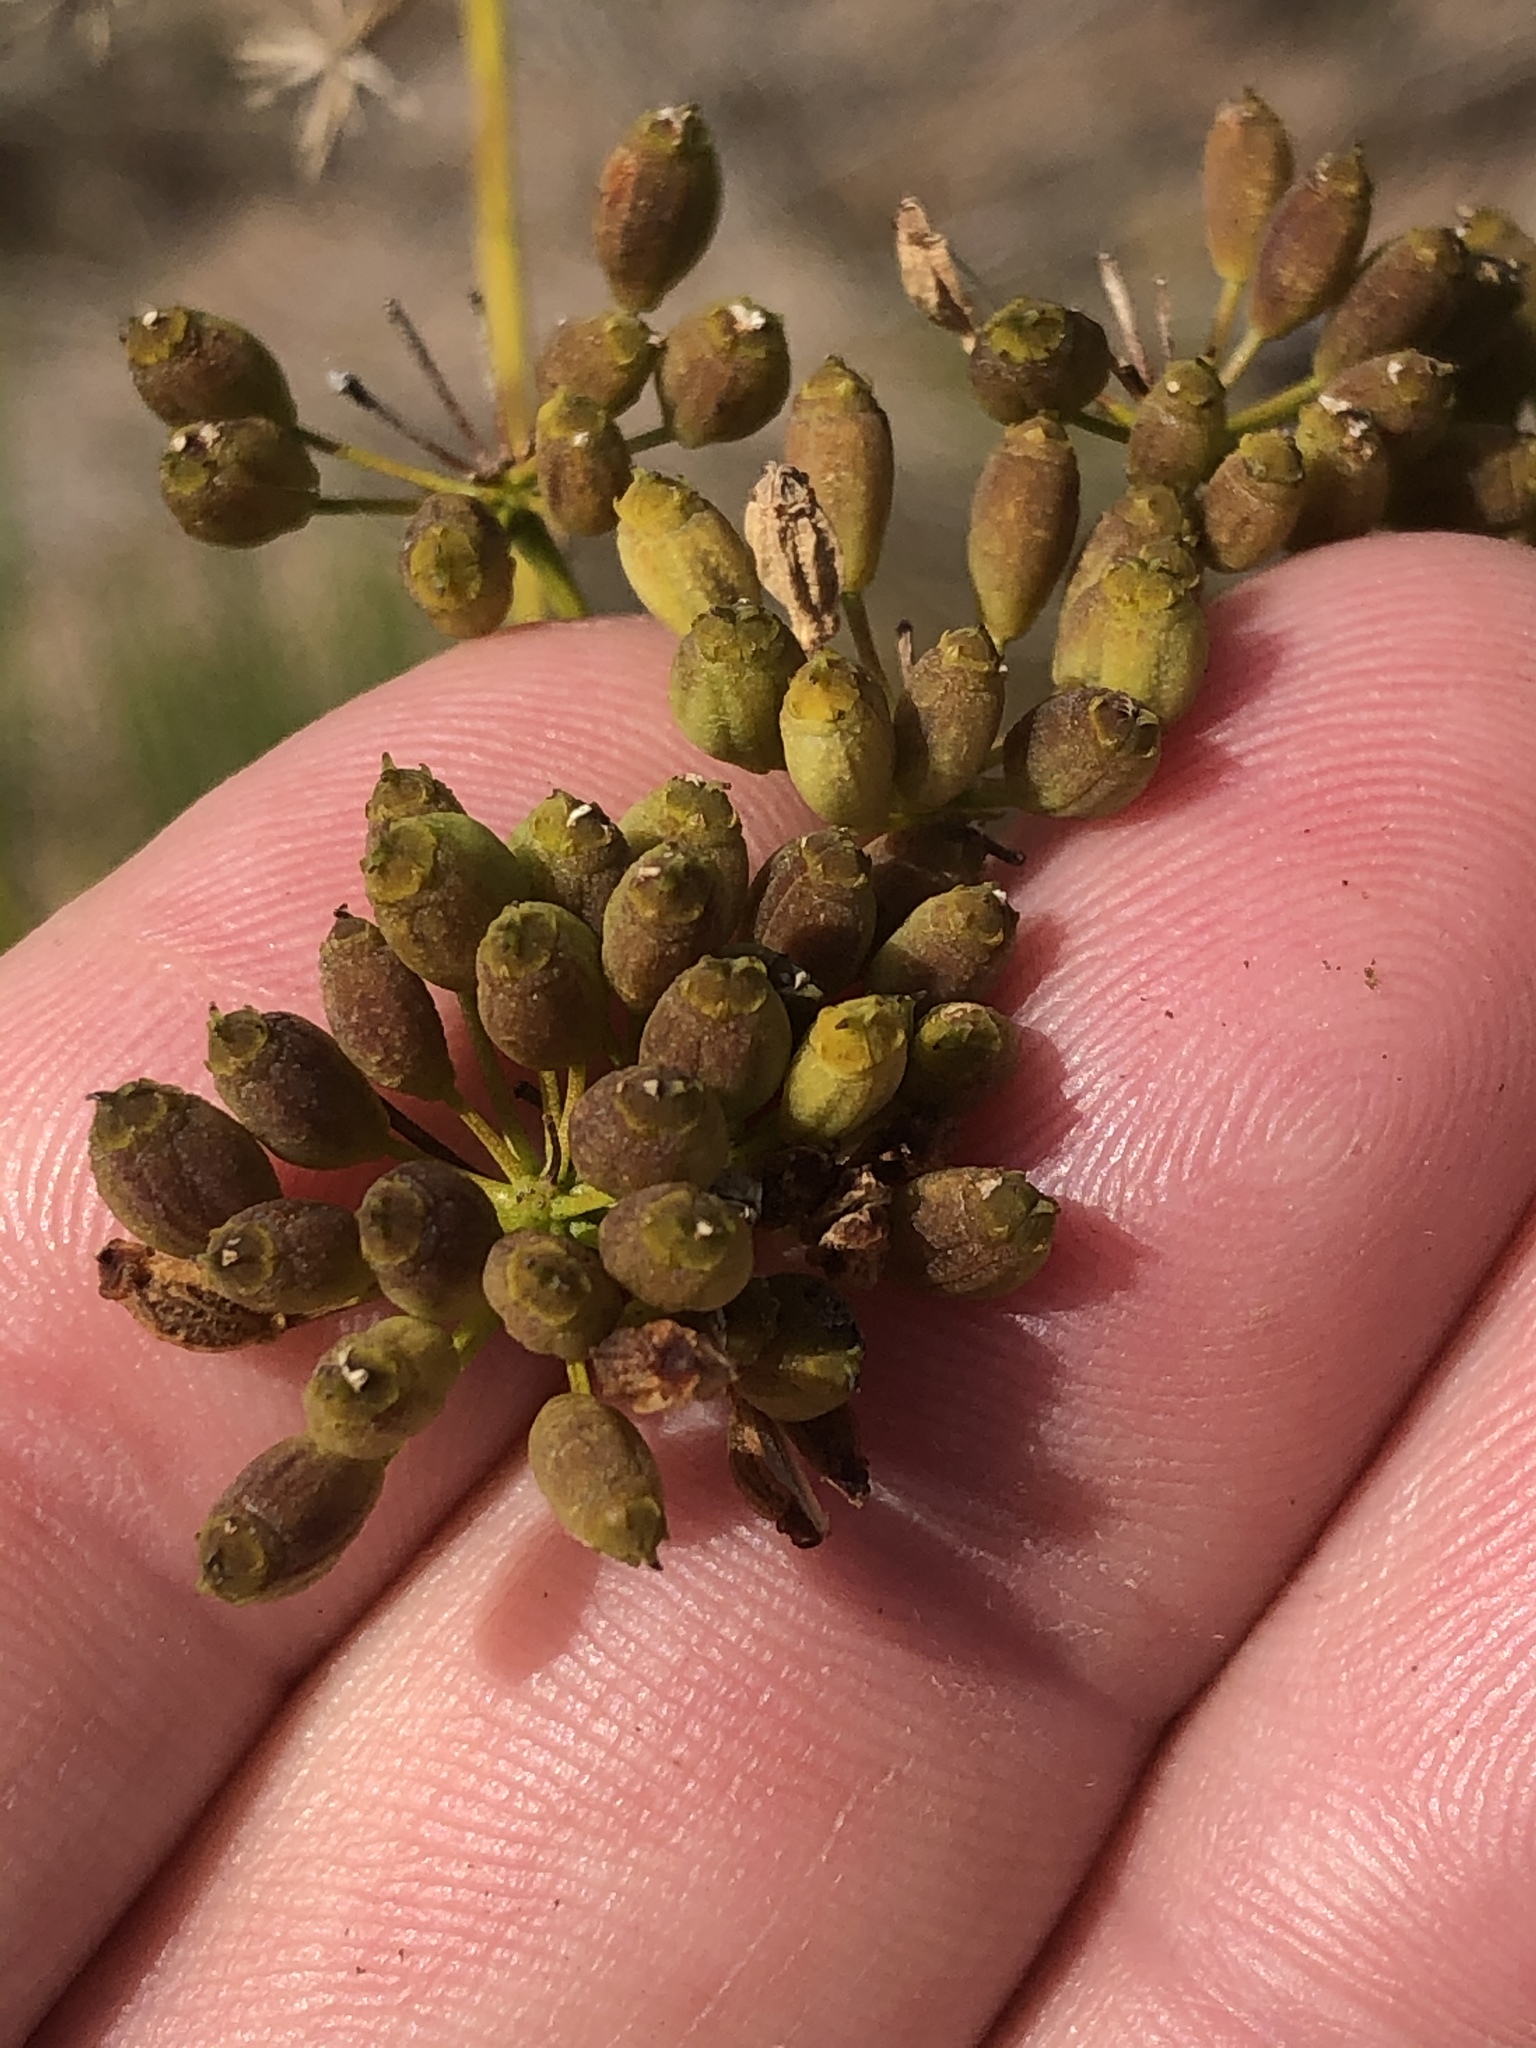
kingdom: Plantae
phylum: Tracheophyta
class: Magnoliopsida
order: Apiales
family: Apiaceae
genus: Anginon
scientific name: Anginon difforme
